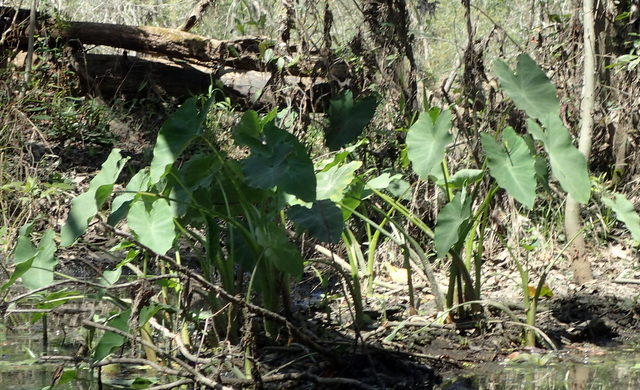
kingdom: Plantae
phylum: Tracheophyta
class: Liliopsida
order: Alismatales
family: Araceae
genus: Colocasia
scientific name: Colocasia esculenta
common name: Taro
